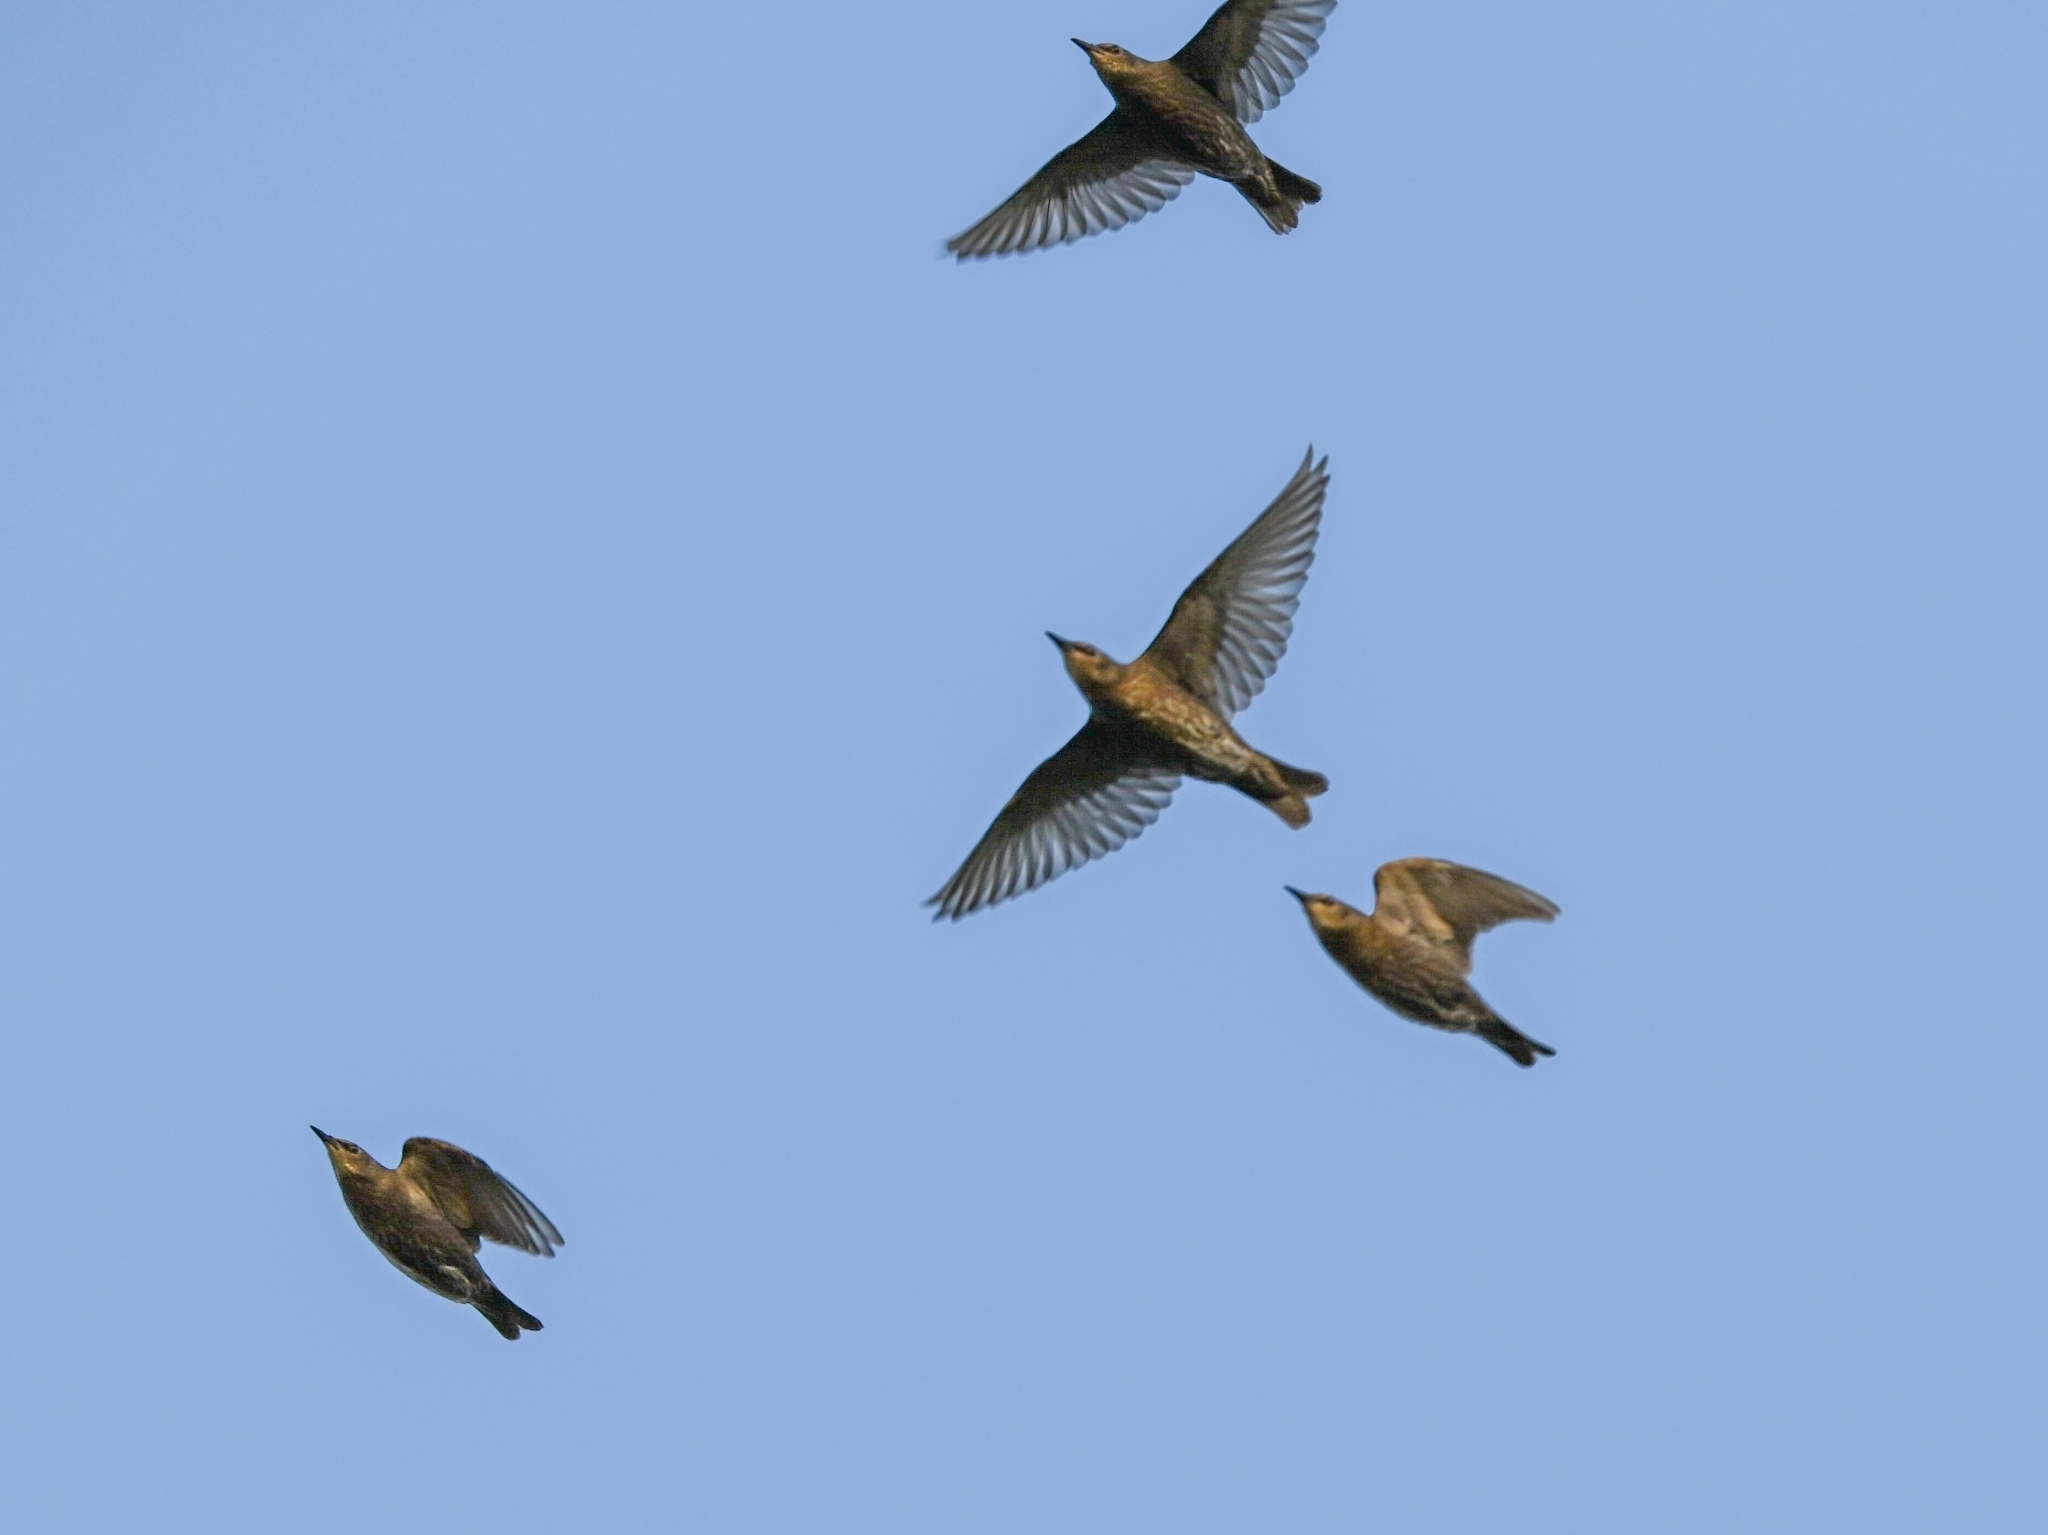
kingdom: Animalia
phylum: Chordata
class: Aves
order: Passeriformes
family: Sturnidae
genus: Sturnus
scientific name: Sturnus vulgaris
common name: Common starling
